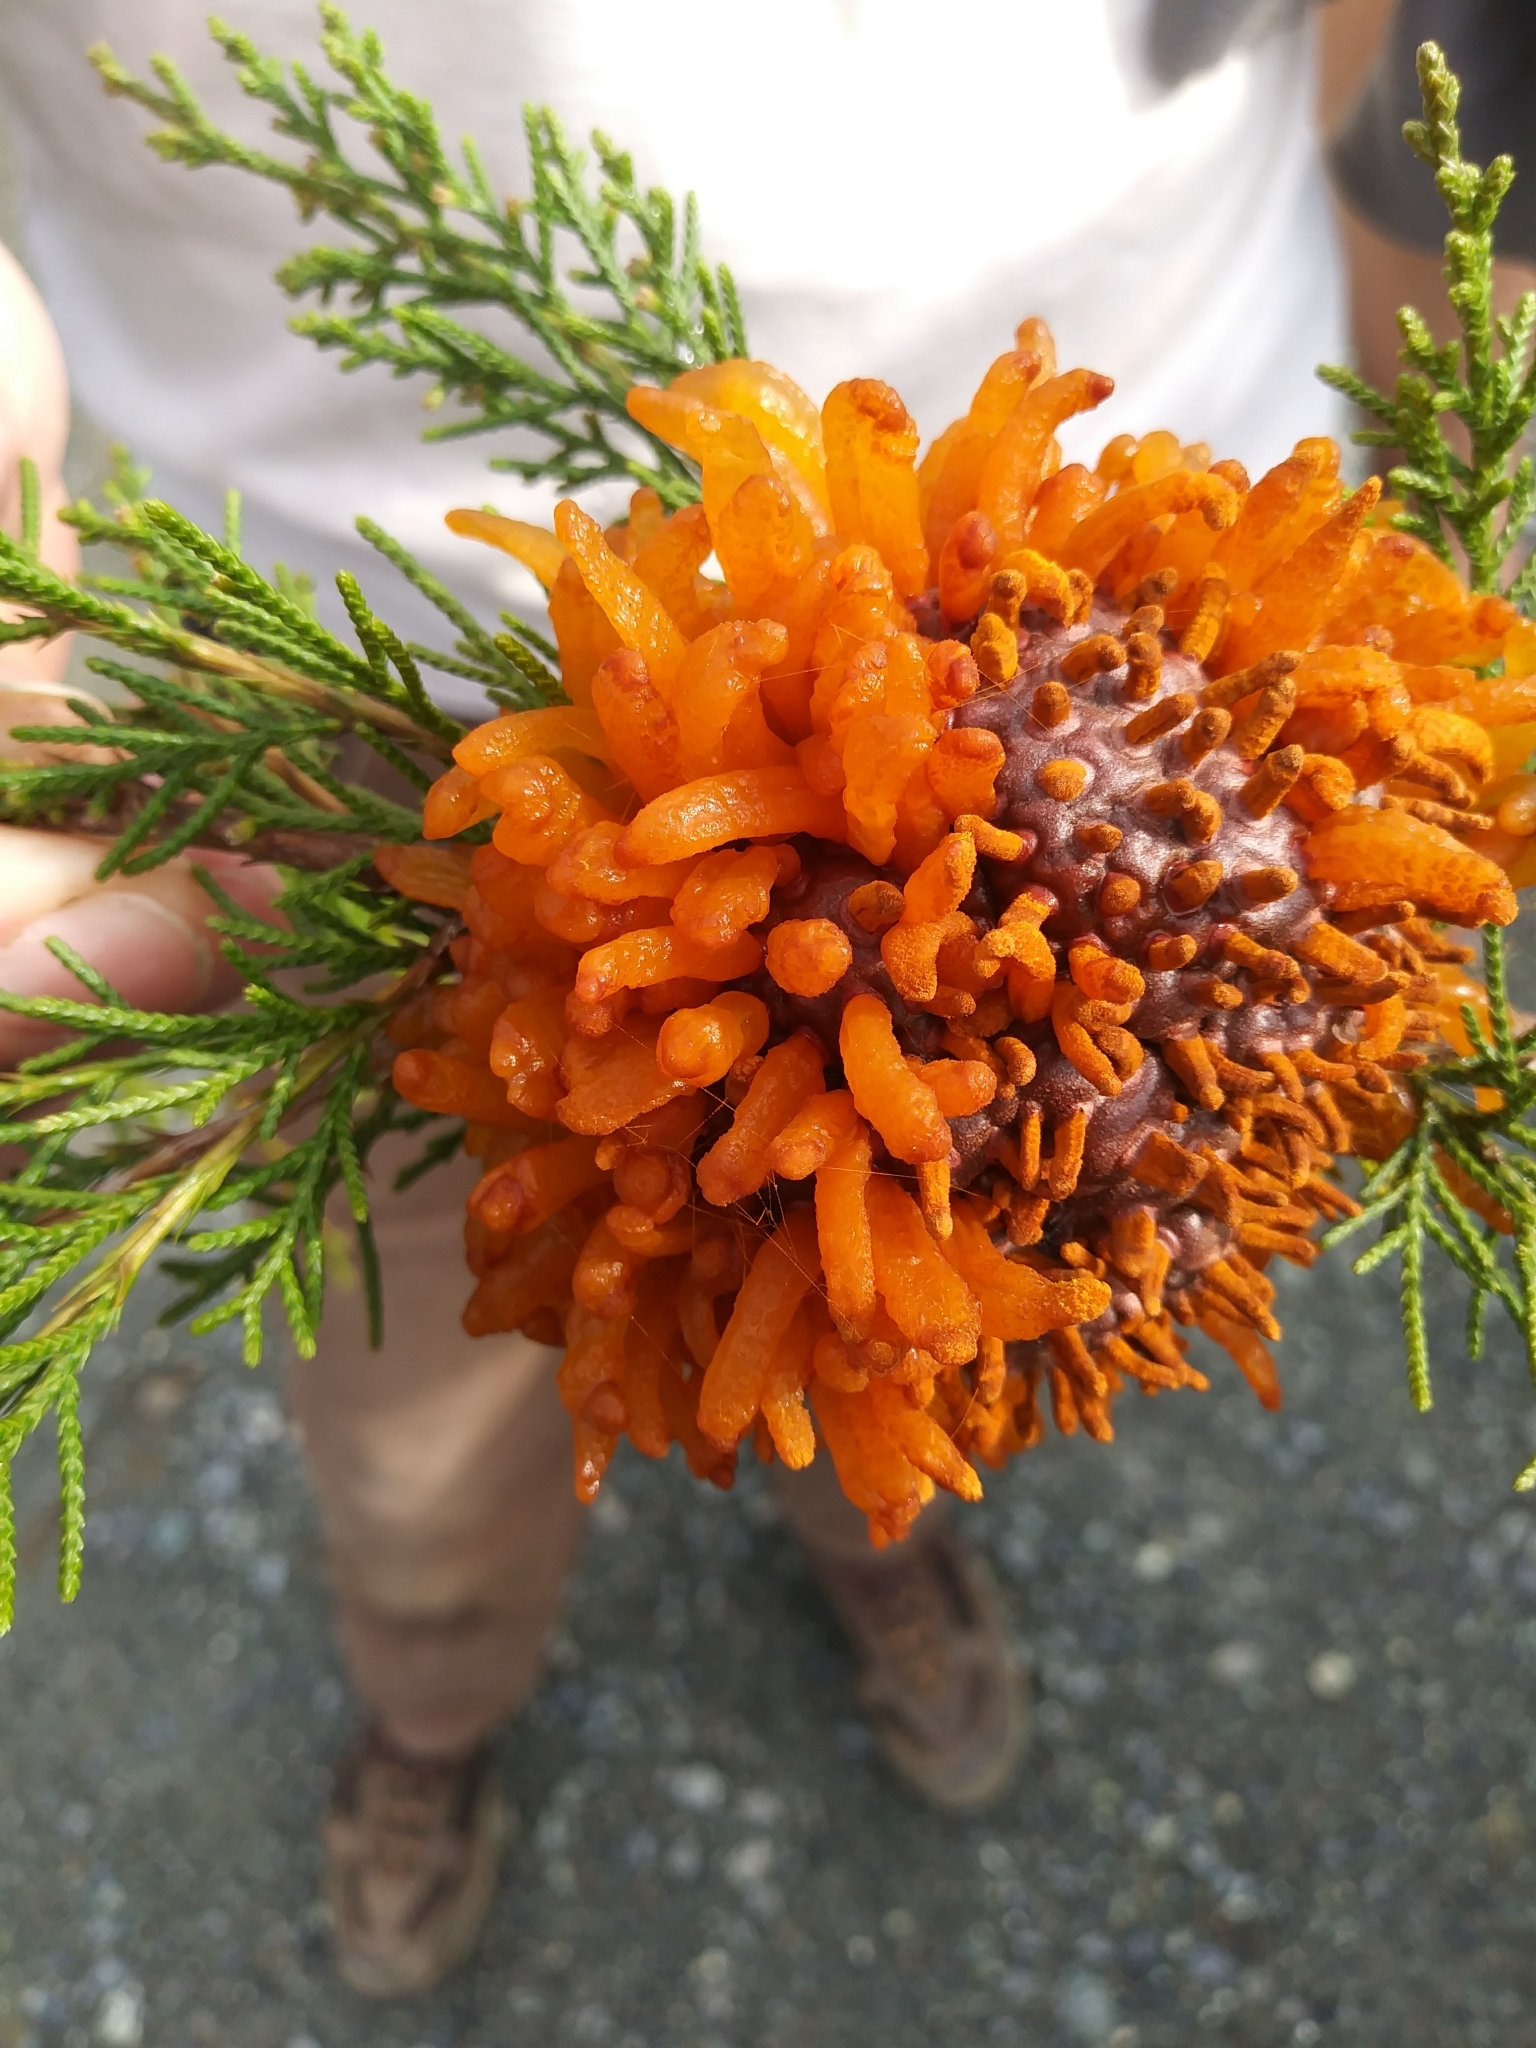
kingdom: Fungi
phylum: Basidiomycota
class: Pucciniomycetes
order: Pucciniales
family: Gymnosporangiaceae
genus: Gymnosporangium
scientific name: Gymnosporangium juniperi-virginianae
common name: Juniper-apple rust
